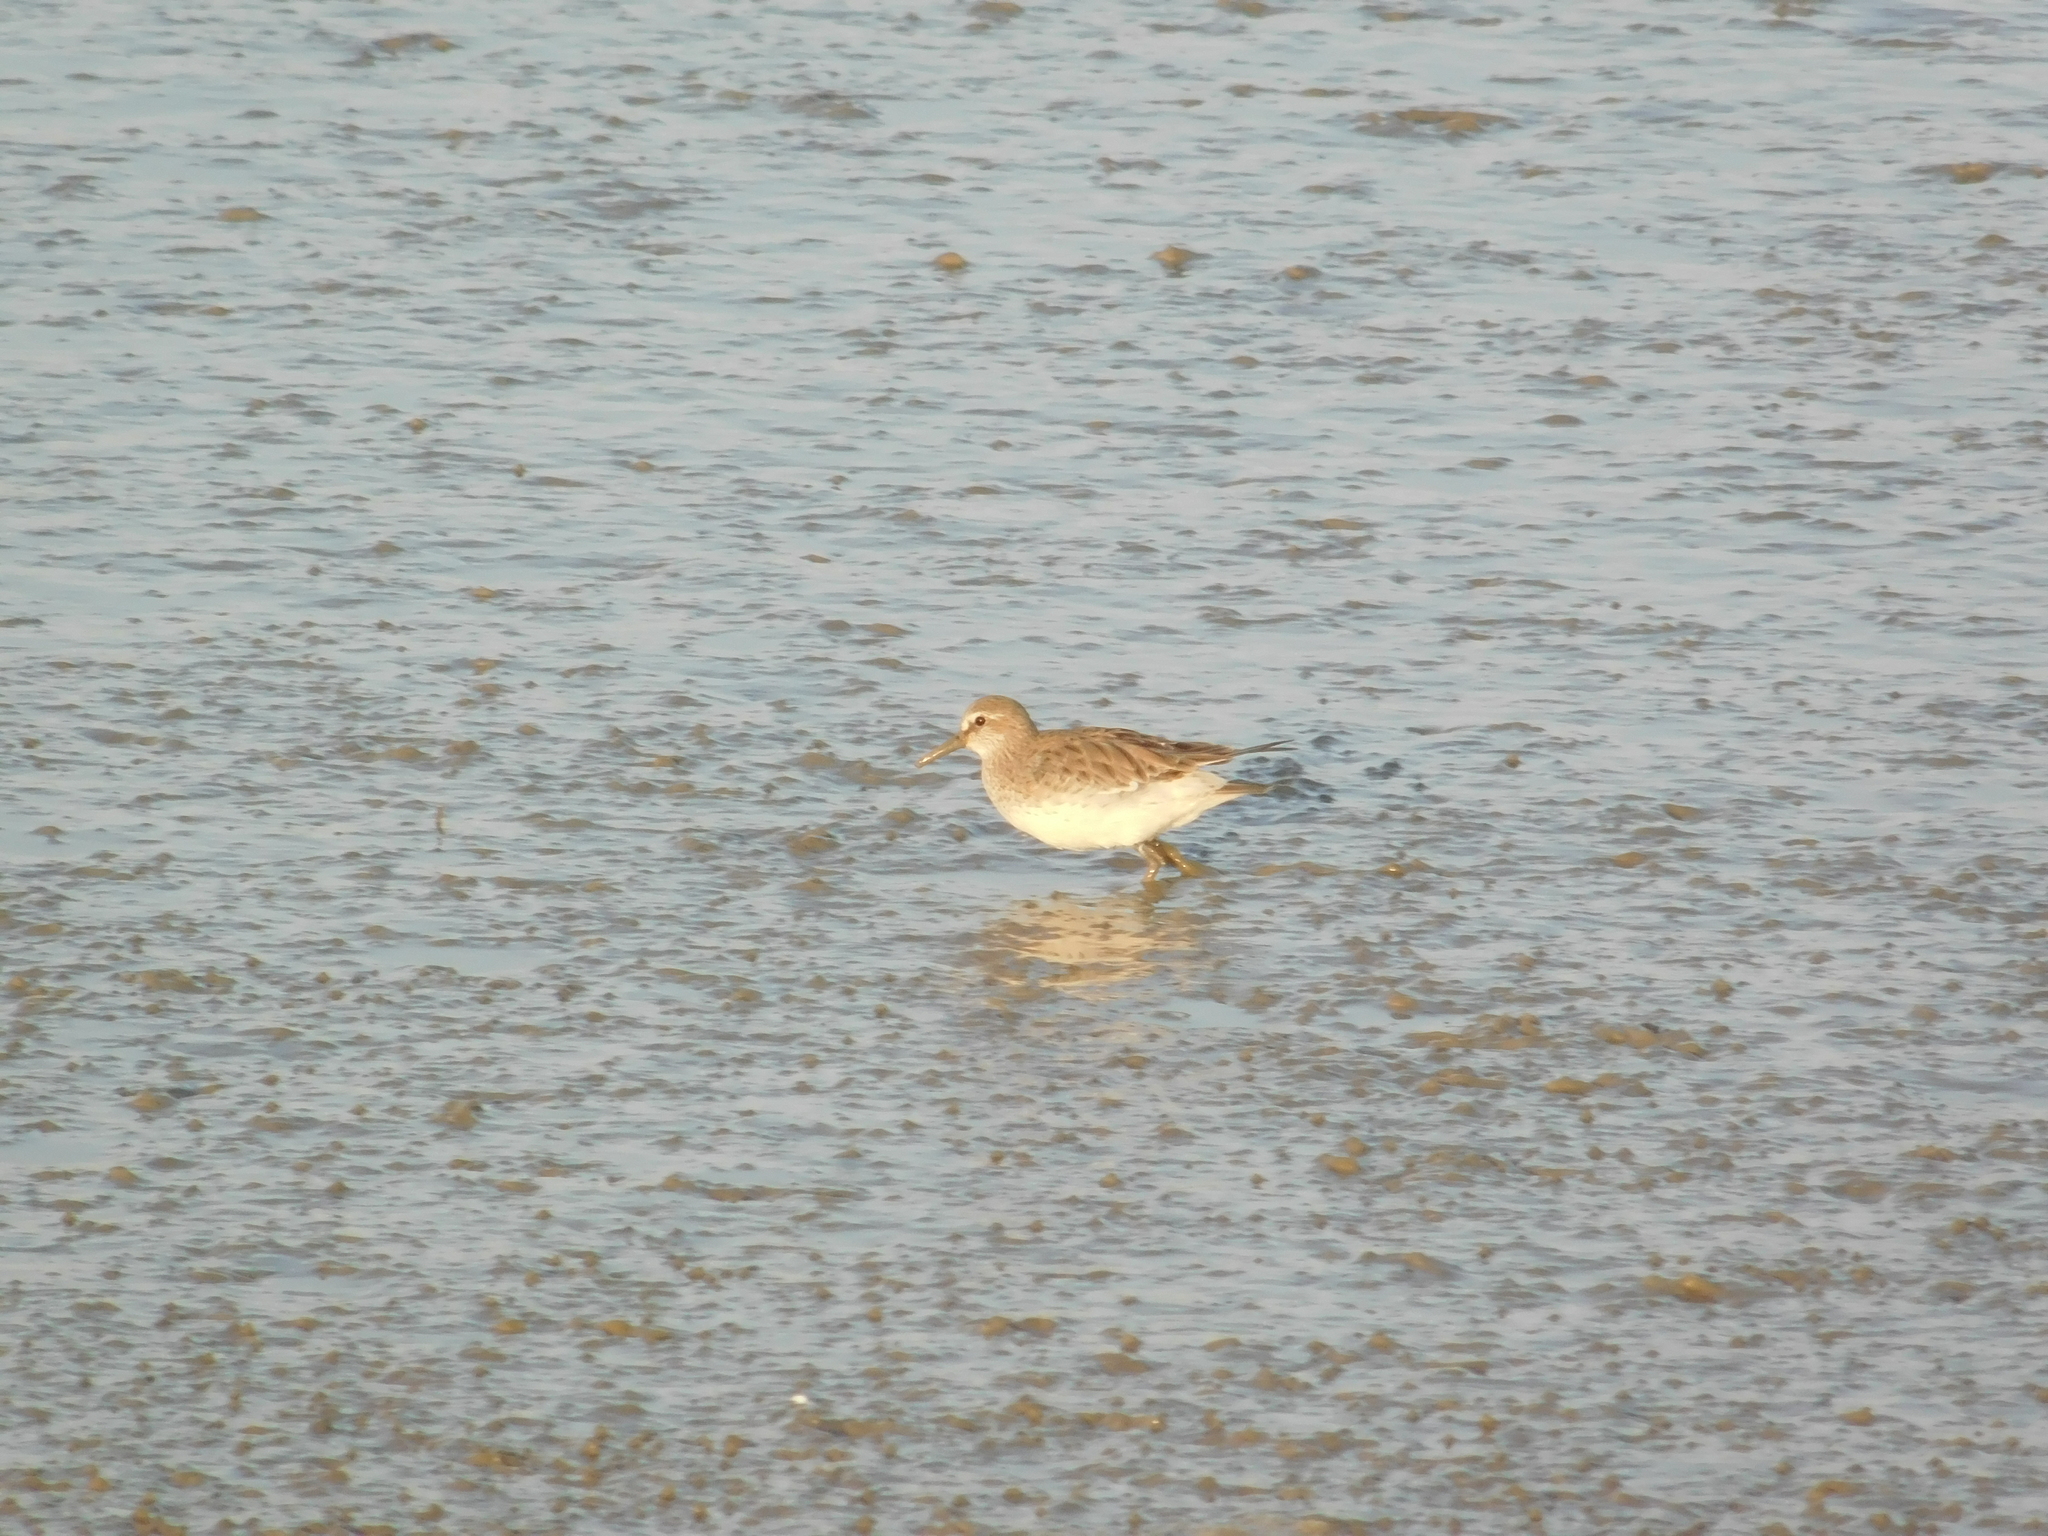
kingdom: Animalia
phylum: Chordata
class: Aves
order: Charadriiformes
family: Scolopacidae
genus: Calidris
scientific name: Calidris fuscicollis
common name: White-rumped sandpiper
